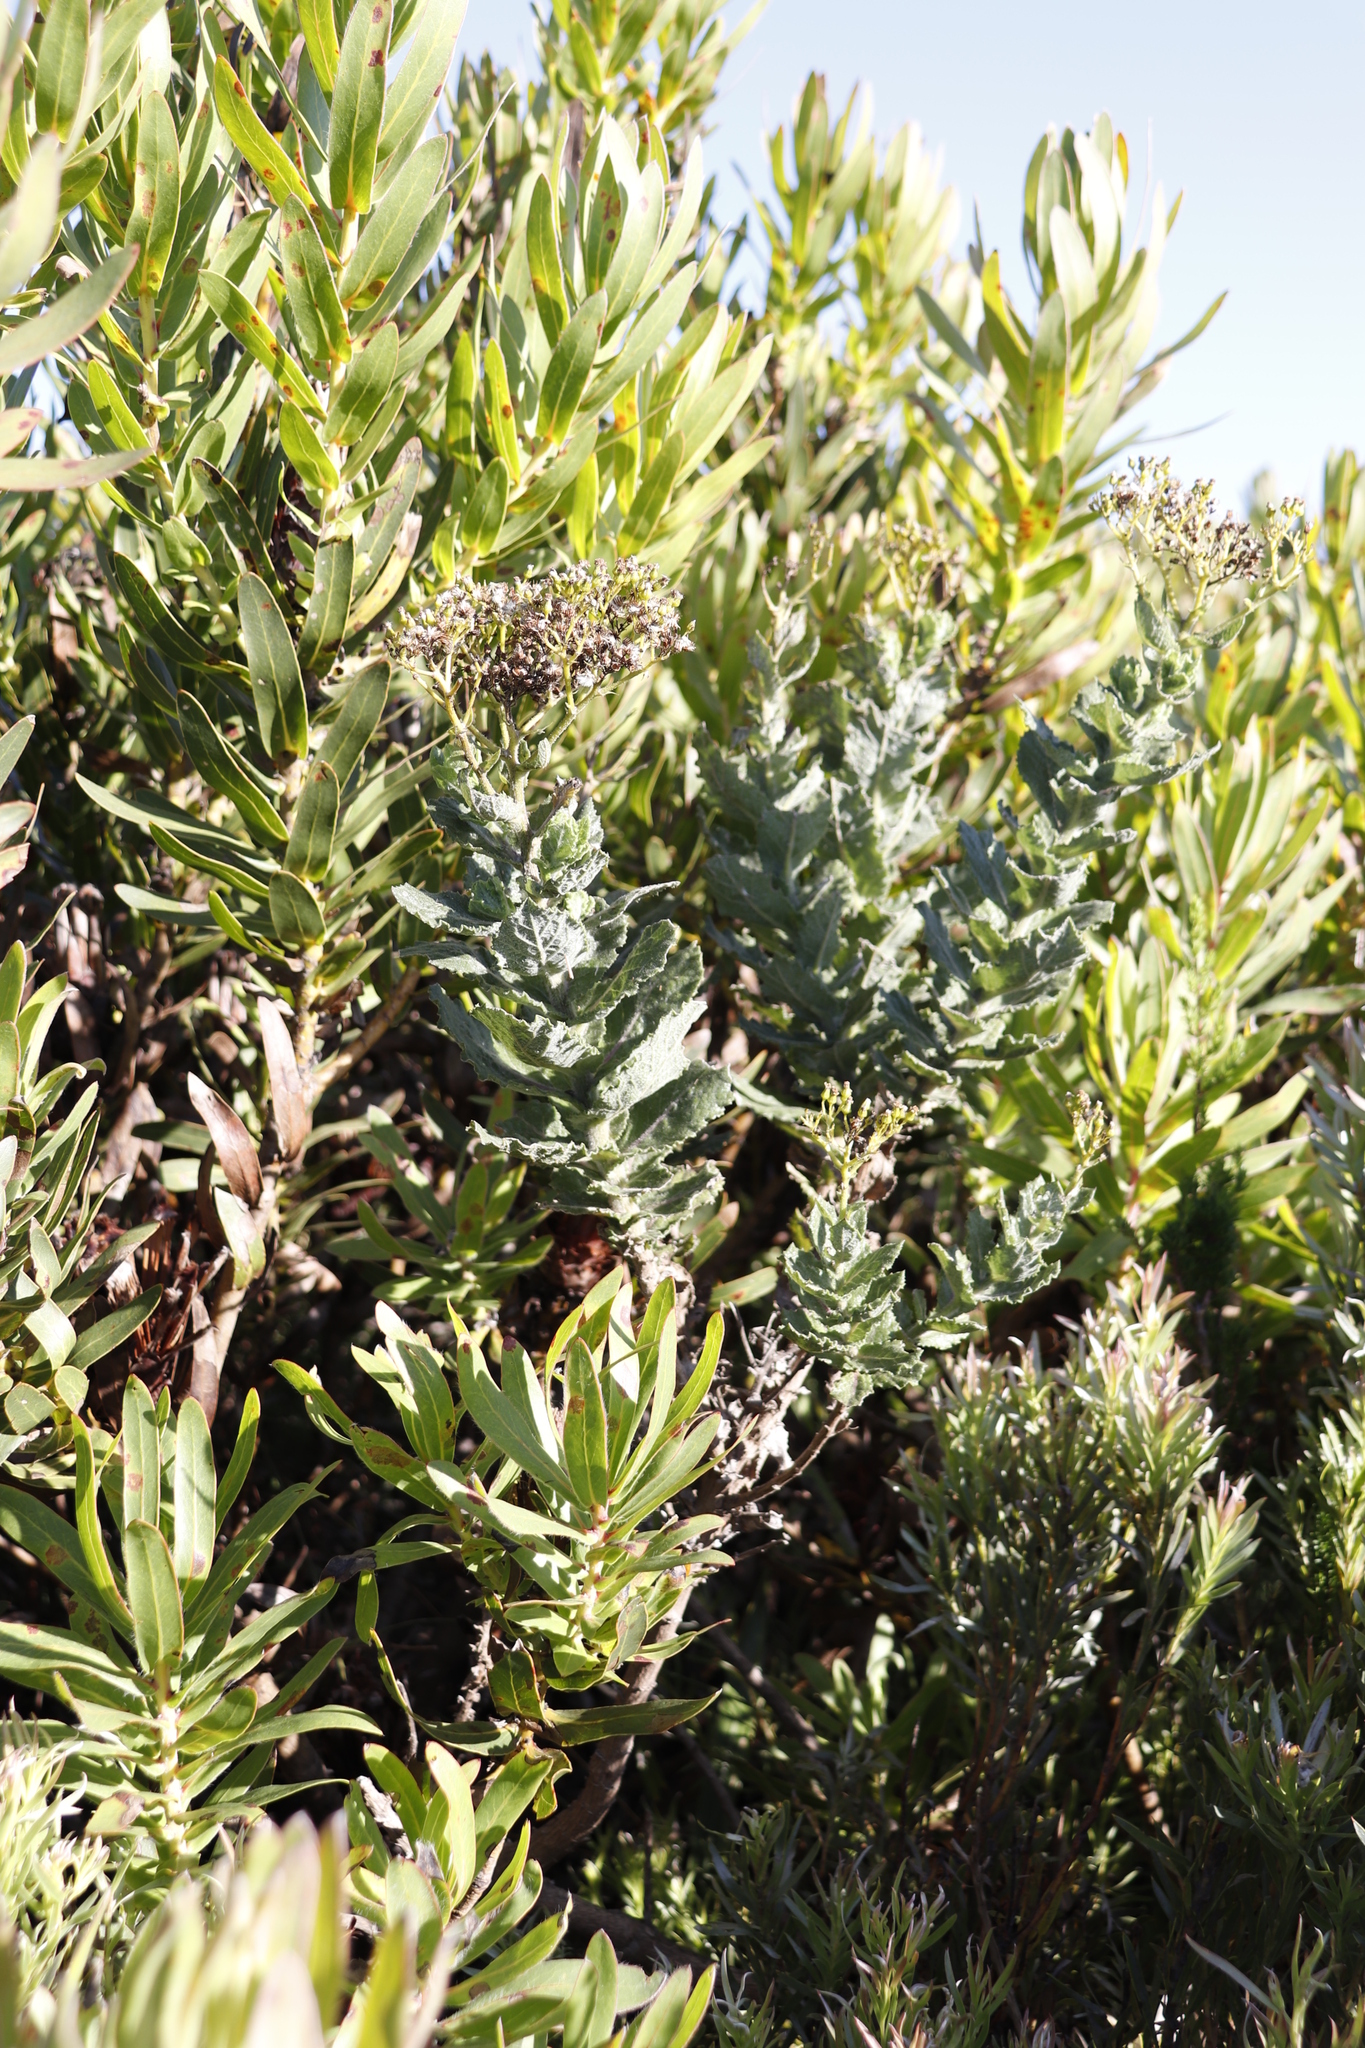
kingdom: Plantae
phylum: Tracheophyta
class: Magnoliopsida
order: Asterales
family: Asteraceae
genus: Senecio
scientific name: Senecio rigidus
